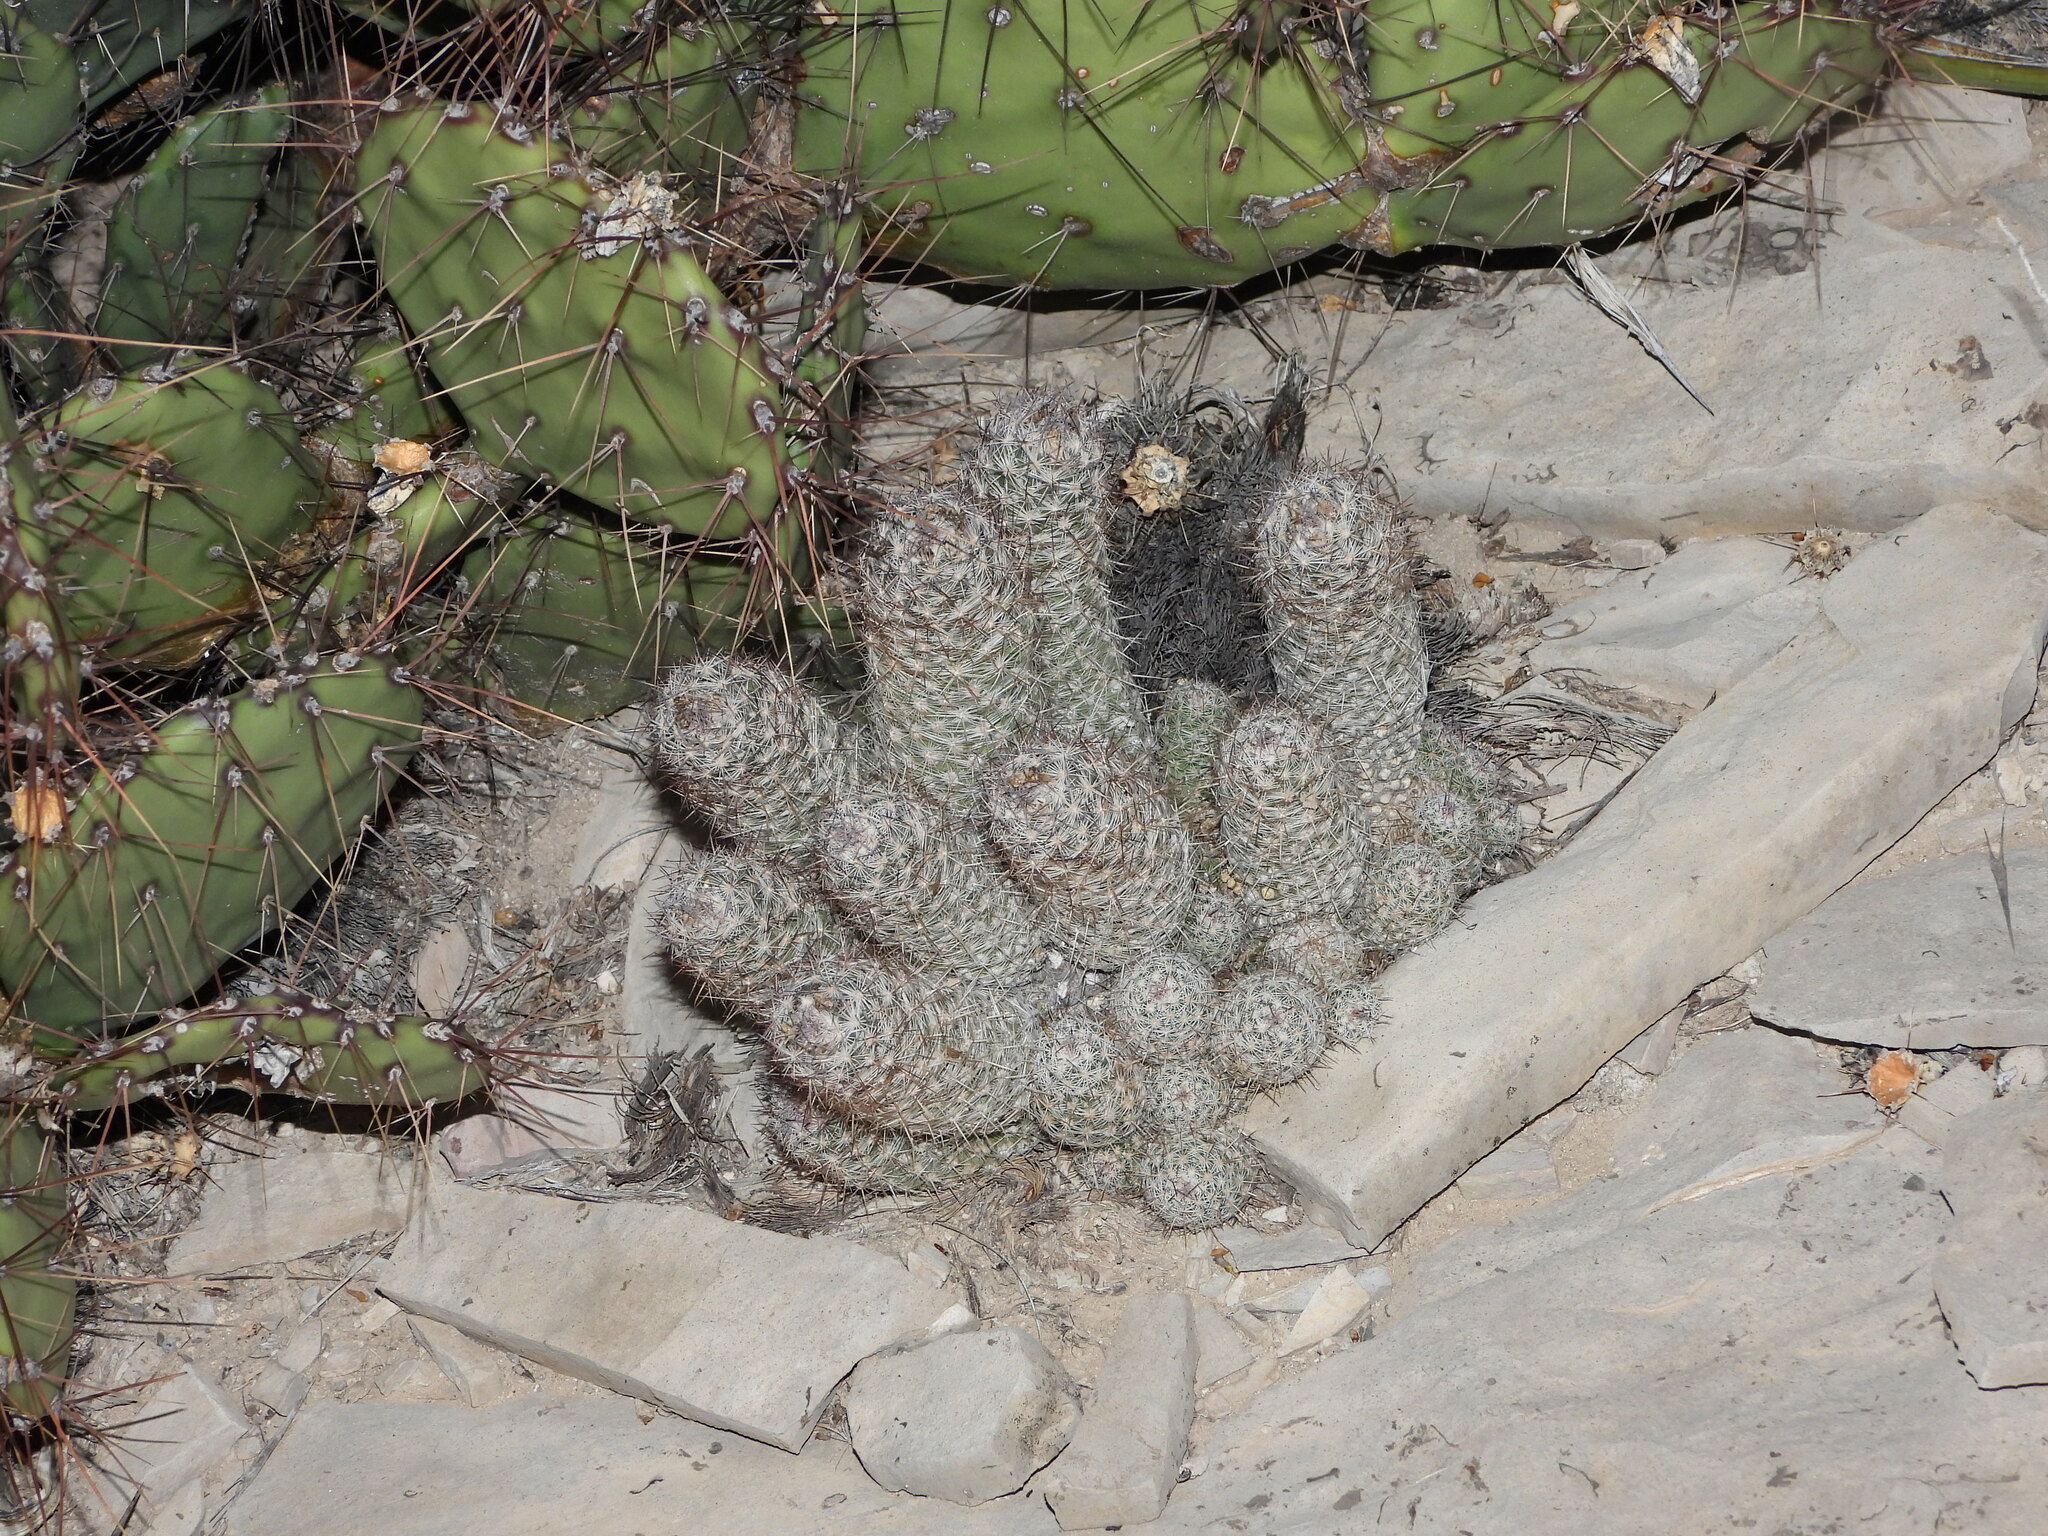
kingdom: Plantae
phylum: Tracheophyta
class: Magnoliopsida
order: Caryophyllales
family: Cactaceae
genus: Pelecyphora
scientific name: Pelecyphora tuberculosa
